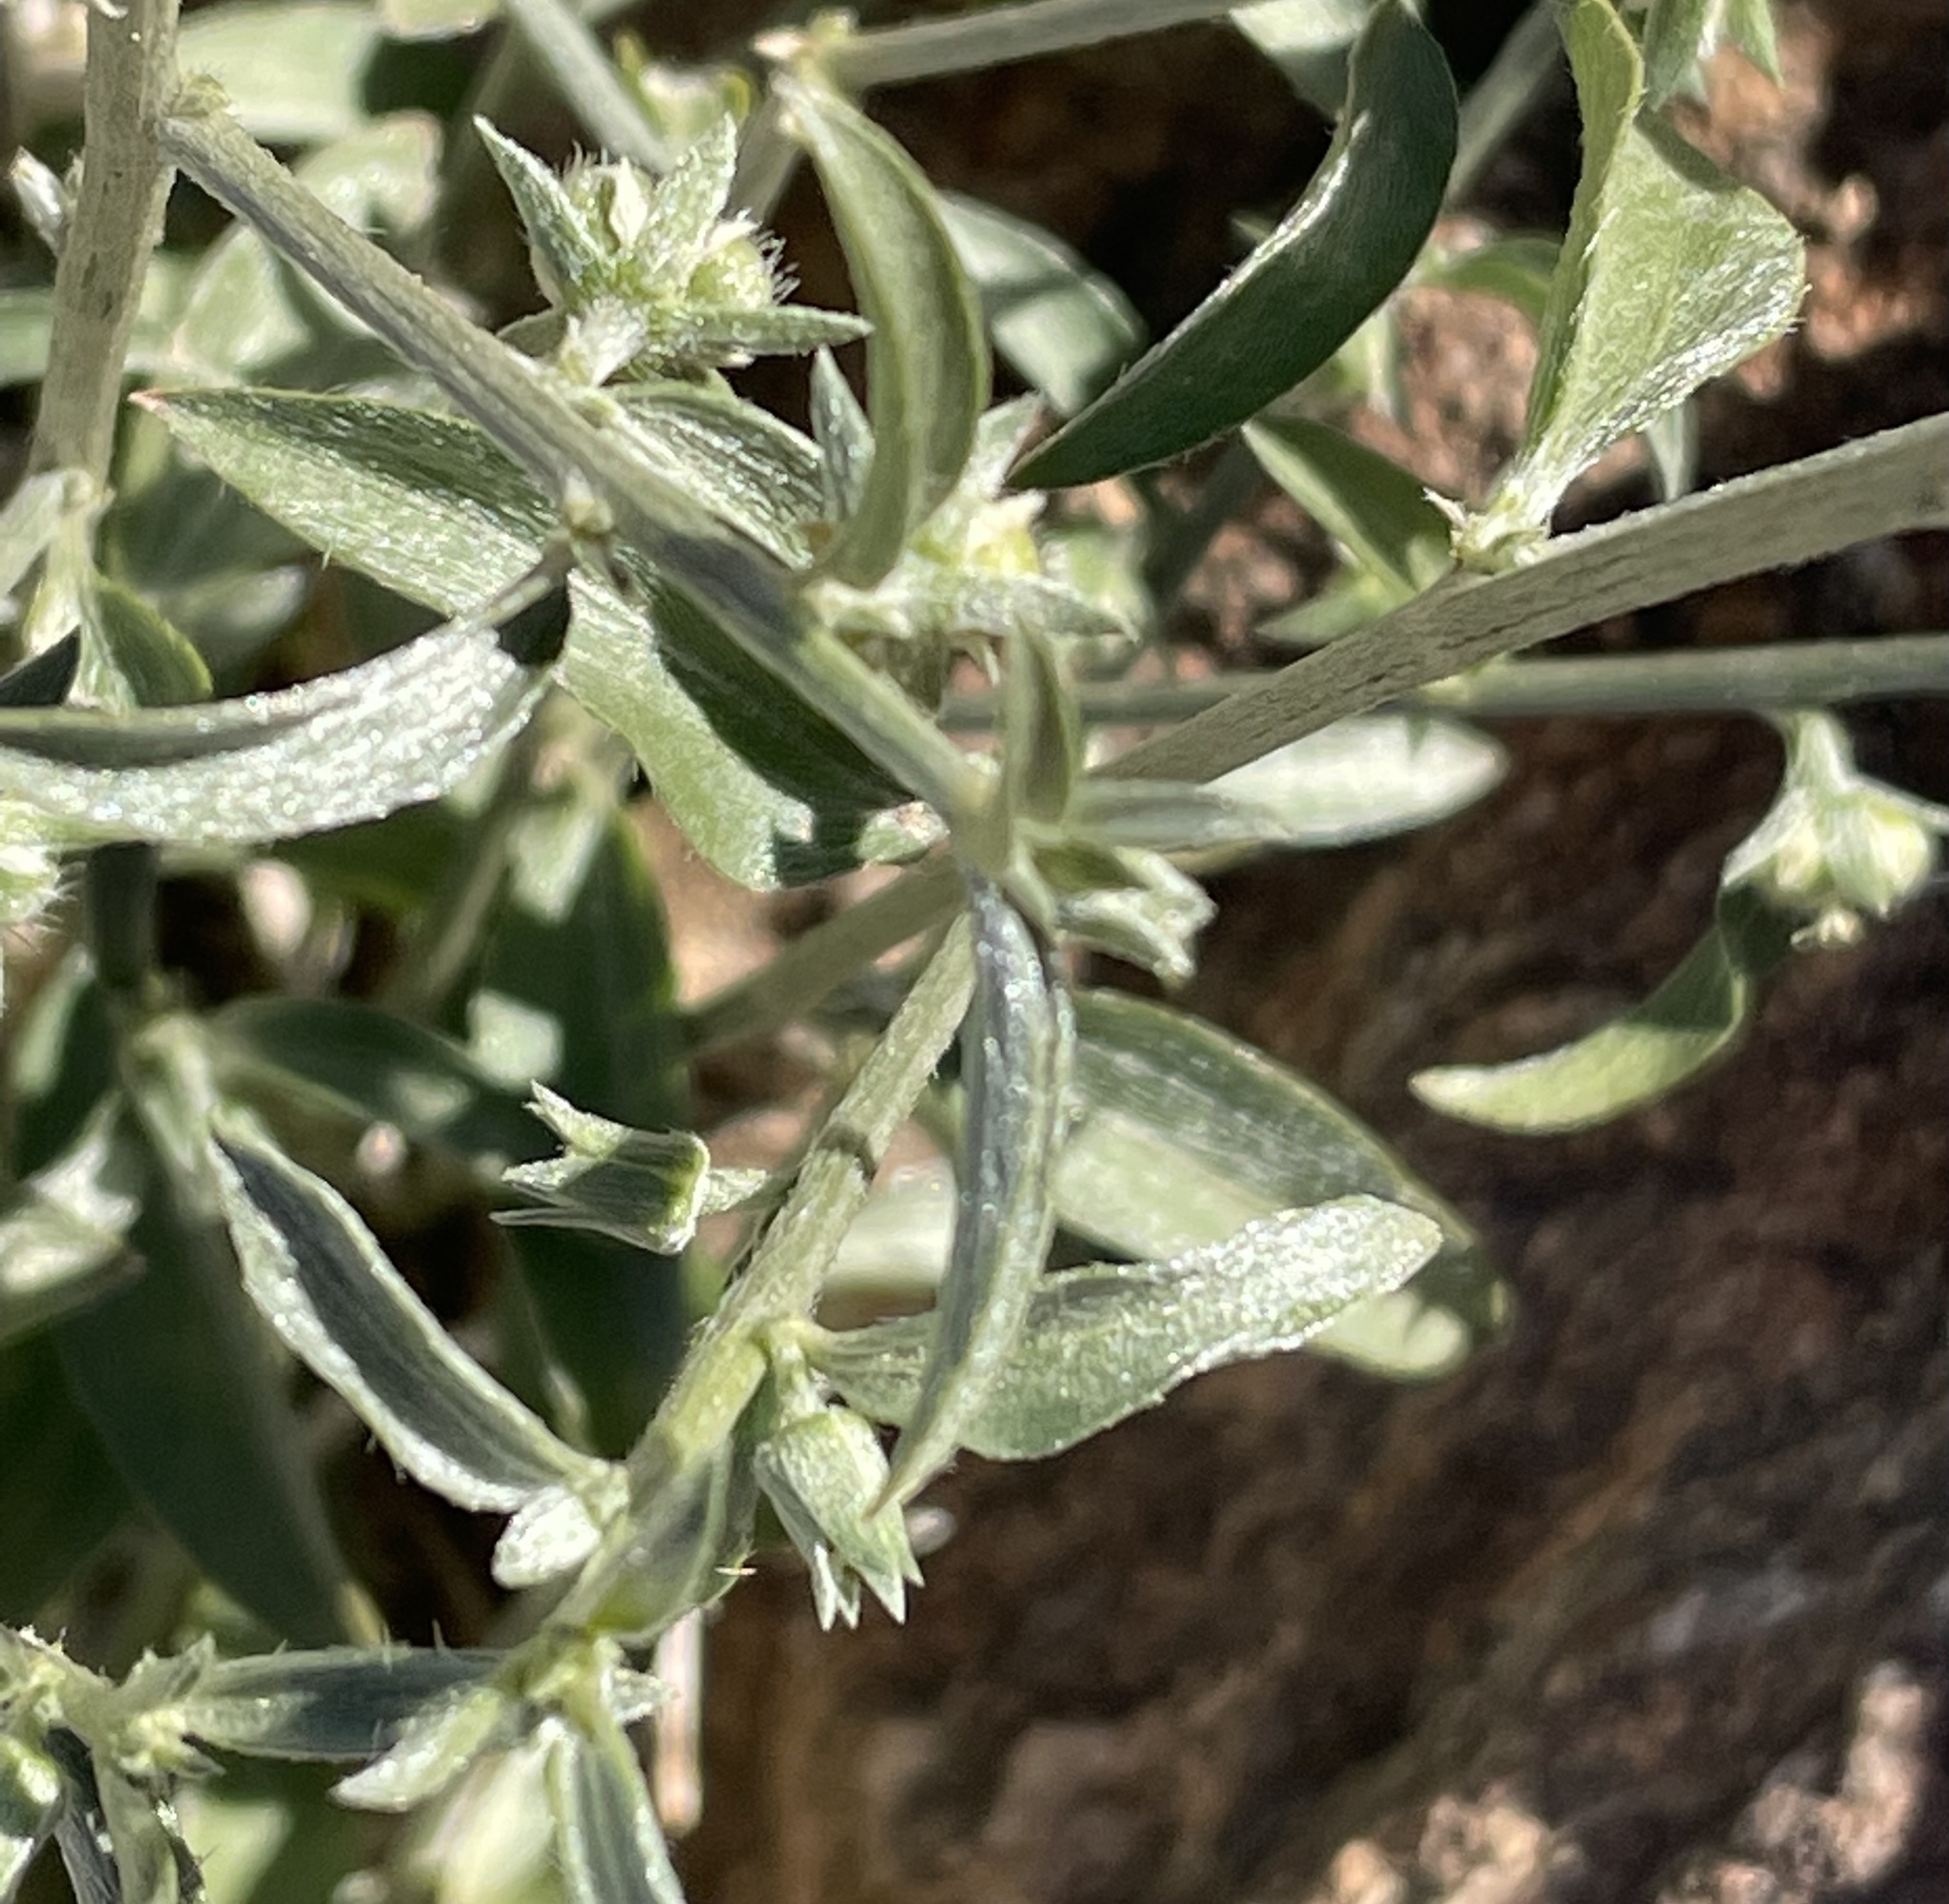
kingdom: Plantae
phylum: Tracheophyta
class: Magnoliopsida
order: Malpighiales
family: Euphorbiaceae
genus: Ditaxis
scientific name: Ditaxis lanceolata
